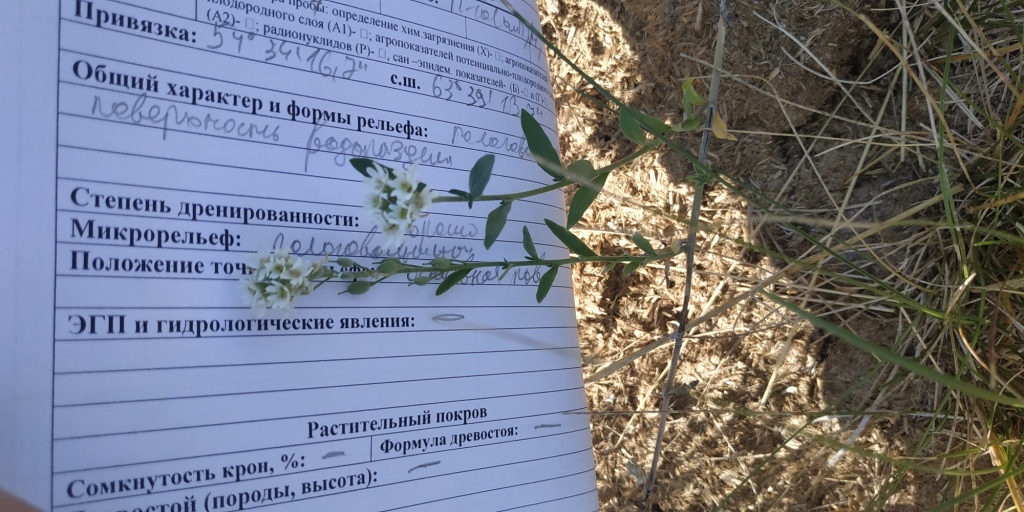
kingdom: Plantae
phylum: Tracheophyta
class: Magnoliopsida
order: Brassicales
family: Brassicaceae
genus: Berteroa
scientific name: Berteroa incana
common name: Hoary alison
